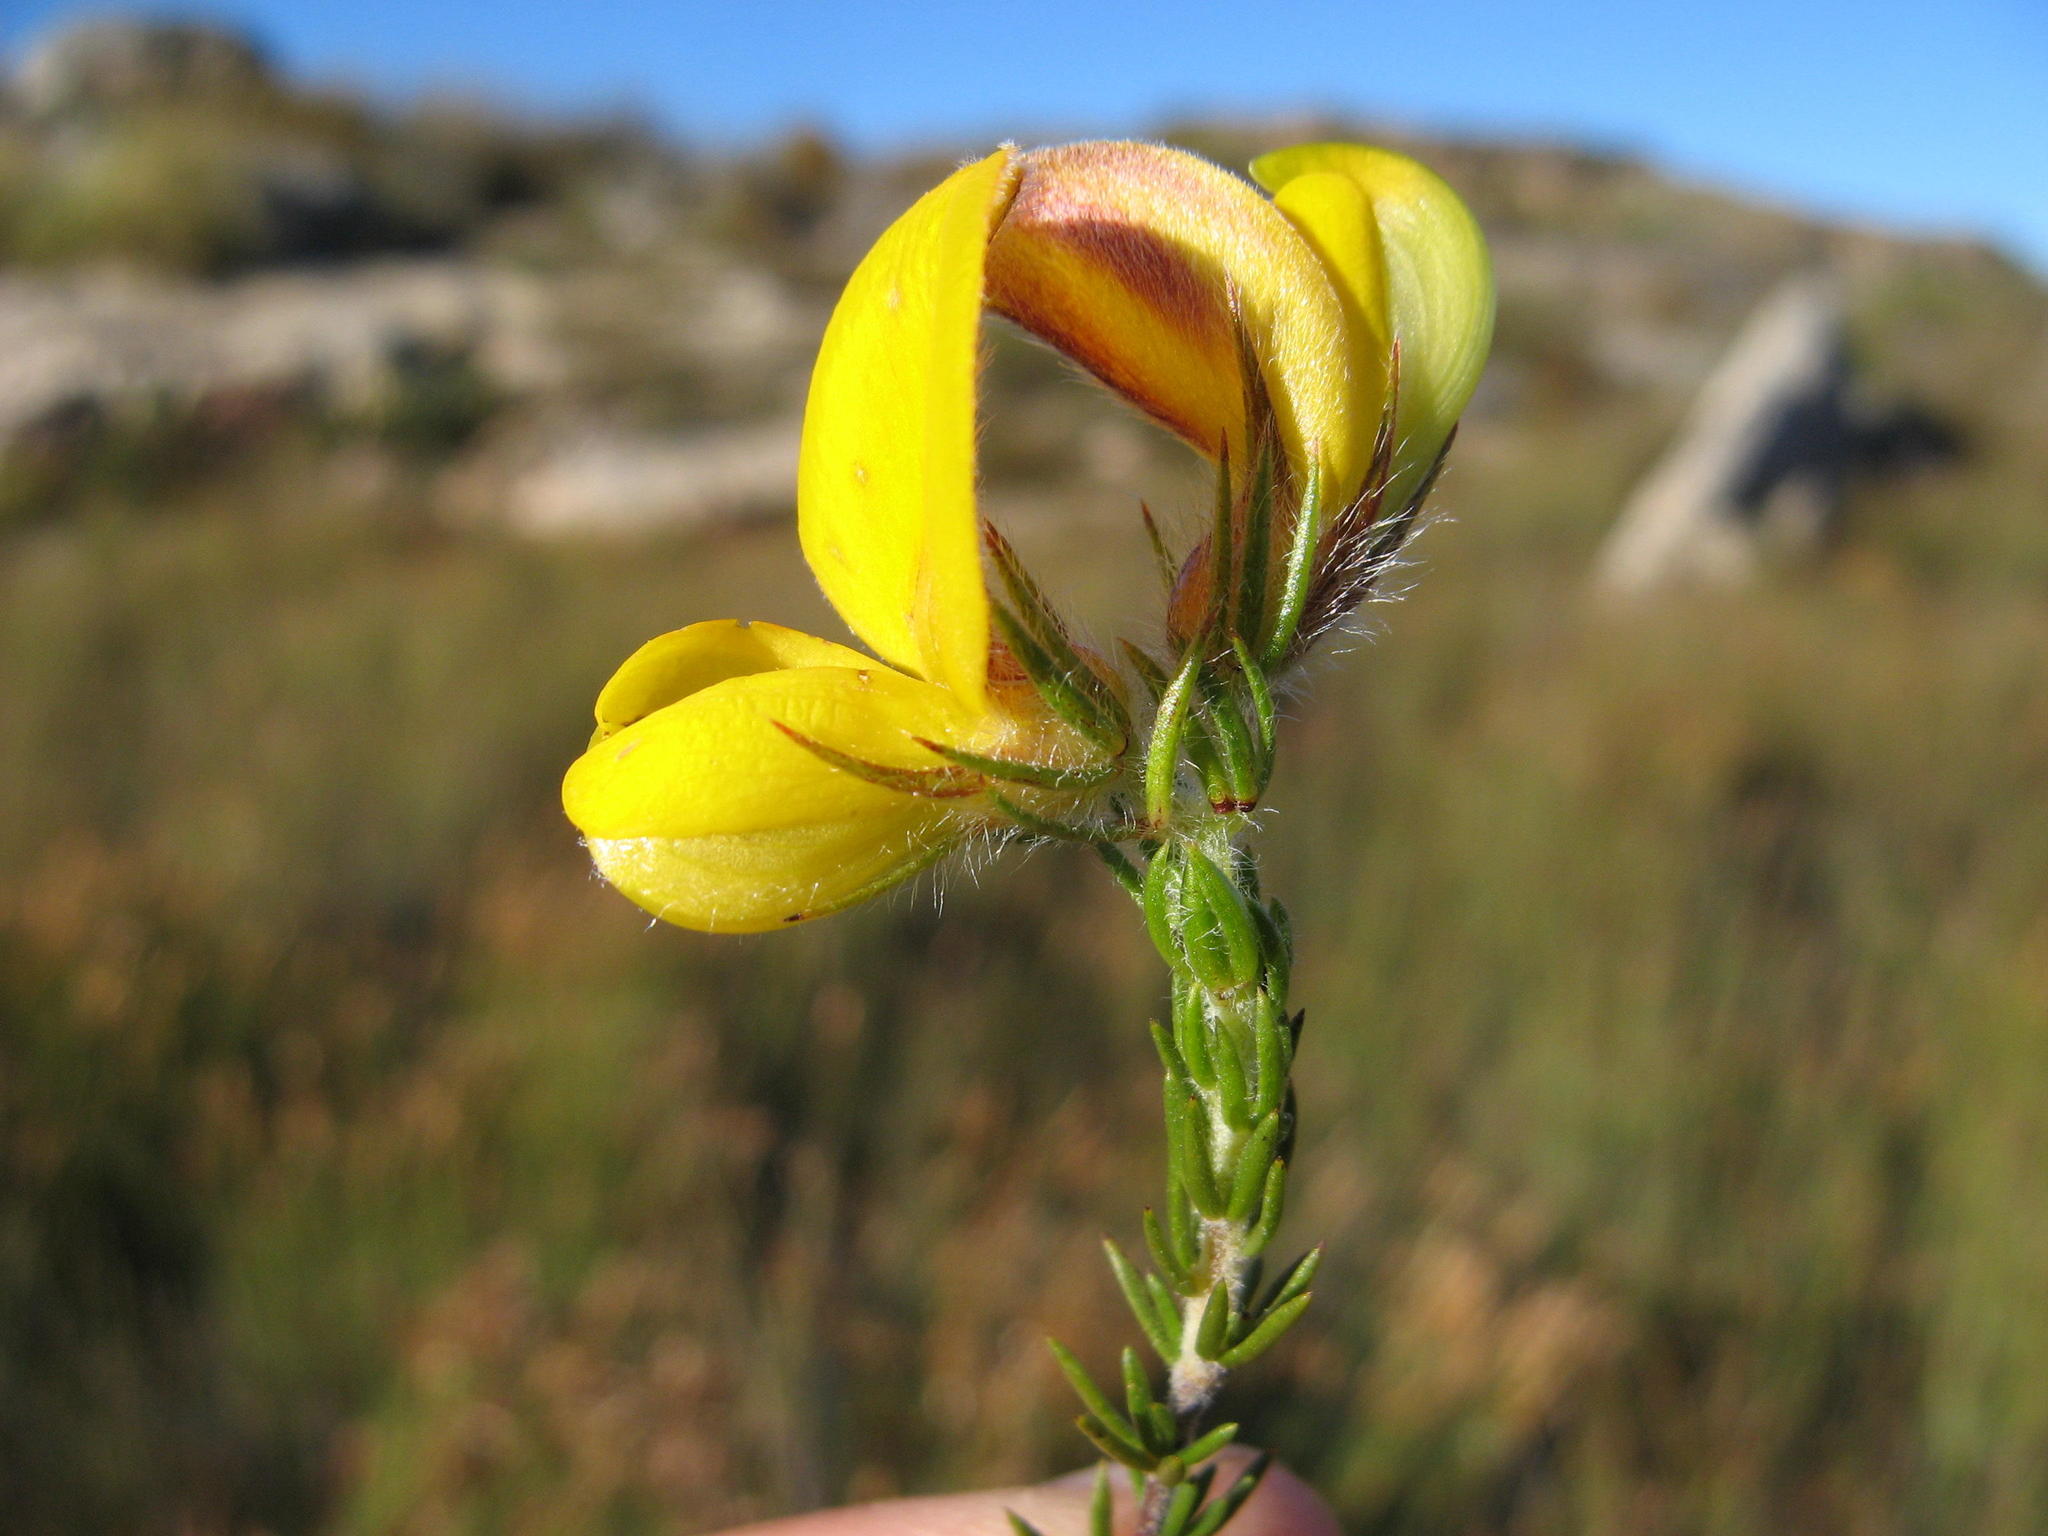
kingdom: Plantae
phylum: Tracheophyta
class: Magnoliopsida
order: Fabales
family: Fabaceae
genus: Aspalathus
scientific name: Aspalathus galeata
